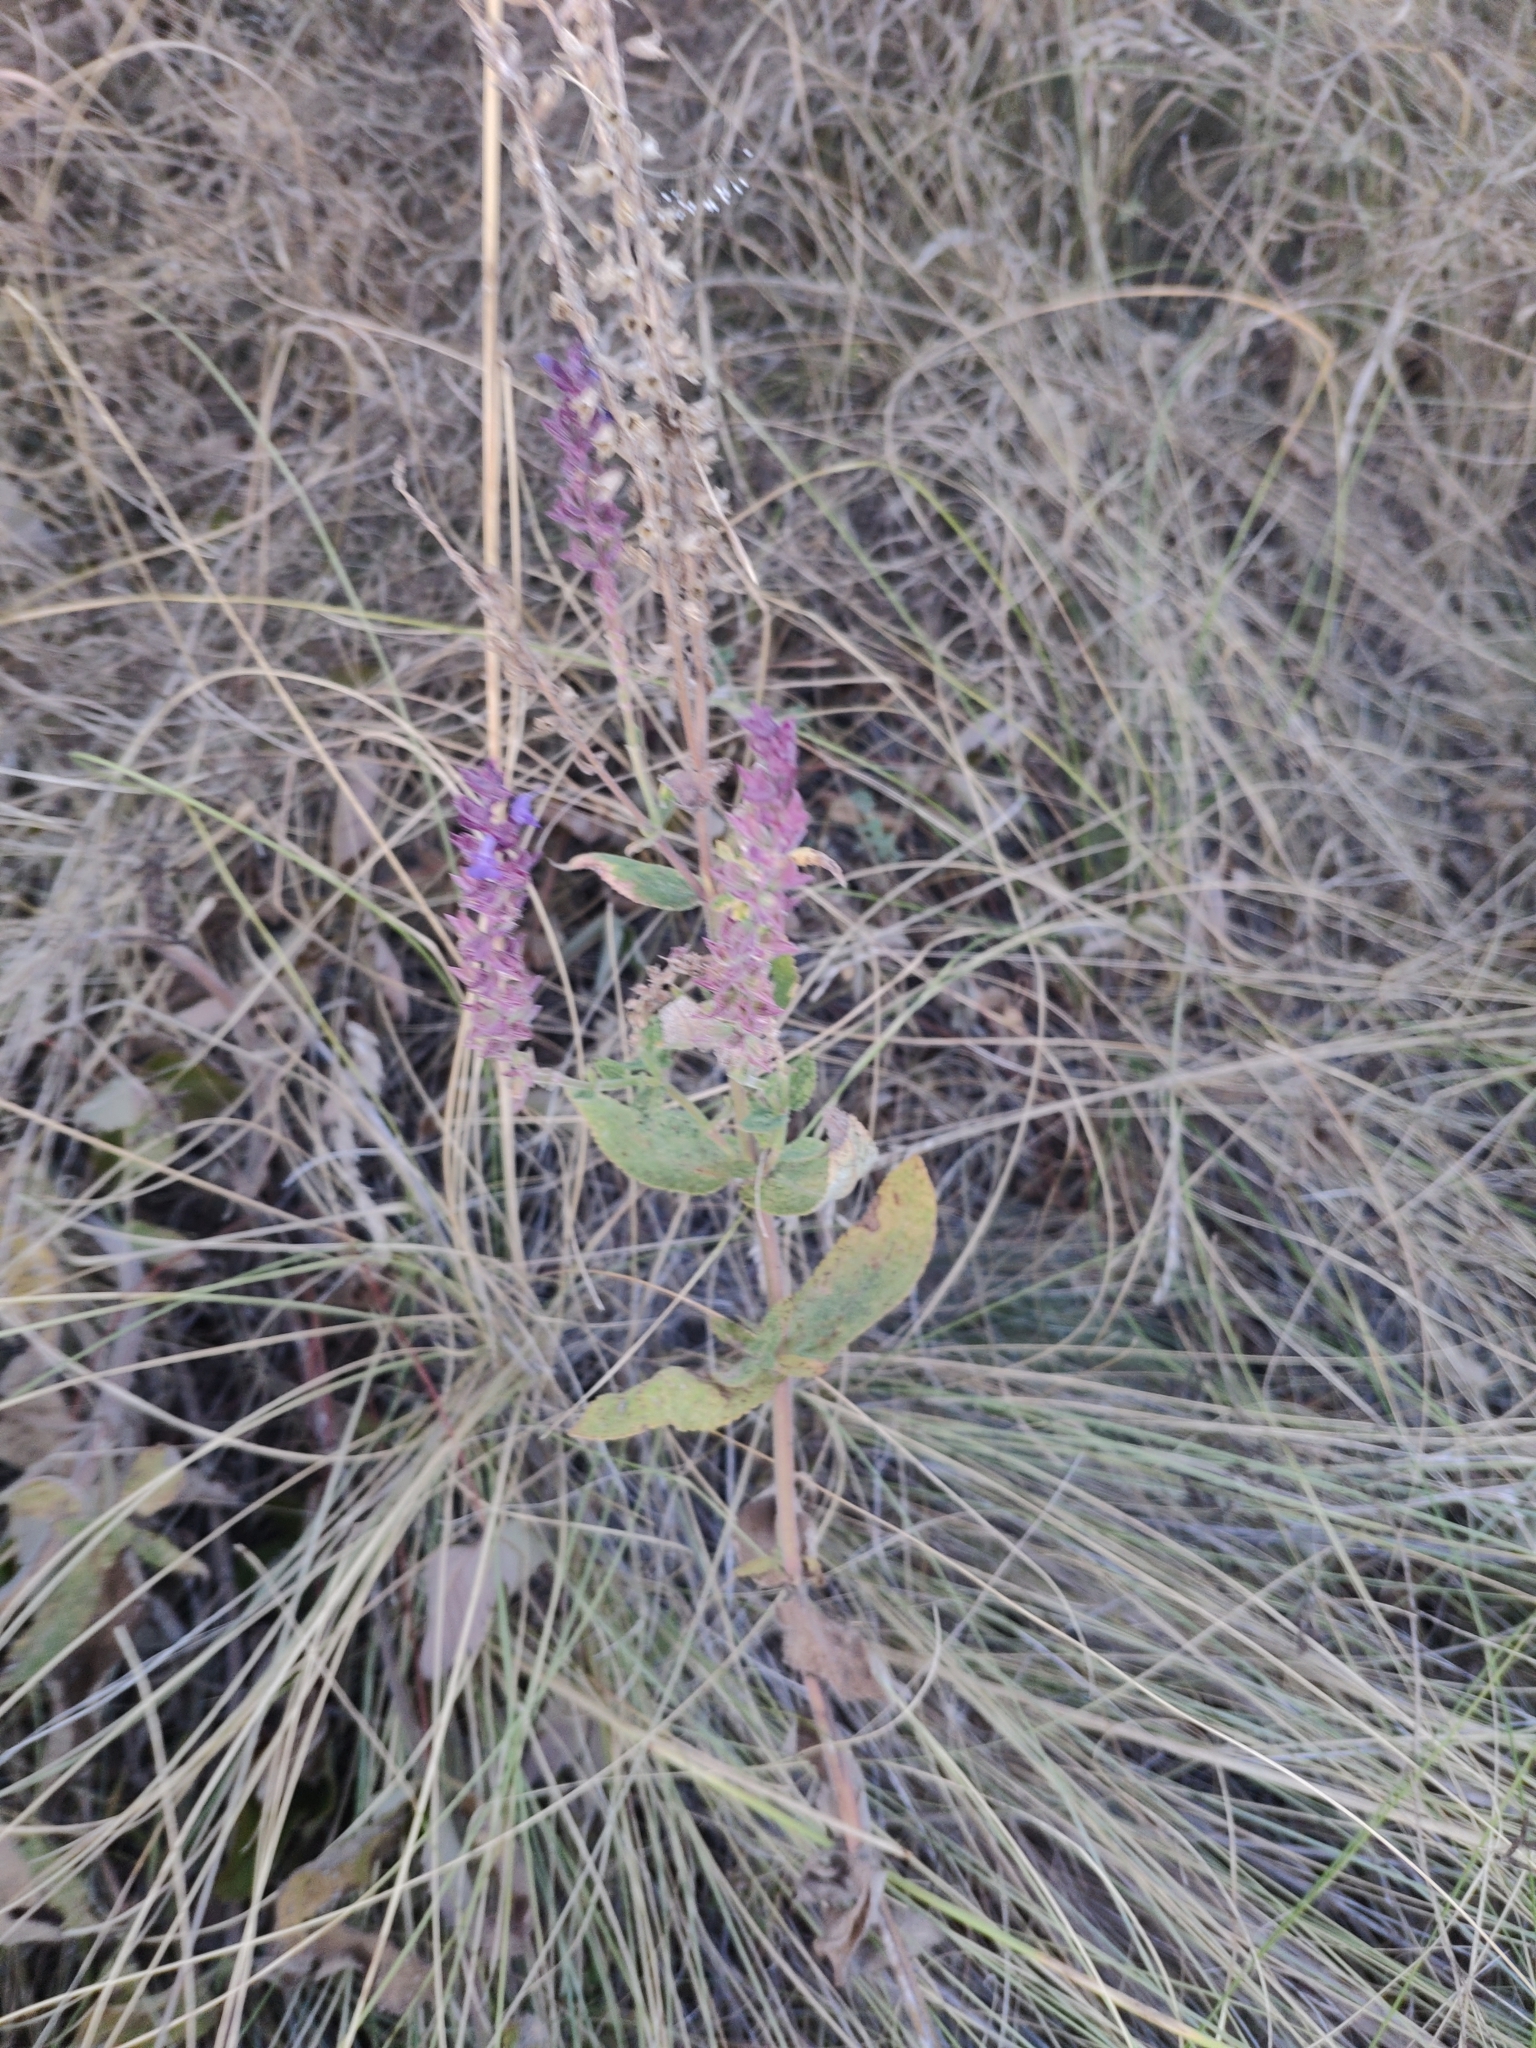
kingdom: Plantae
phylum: Tracheophyta
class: Magnoliopsida
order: Lamiales
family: Lamiaceae
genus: Salvia
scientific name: Salvia nemorosa
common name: Balkan clary
